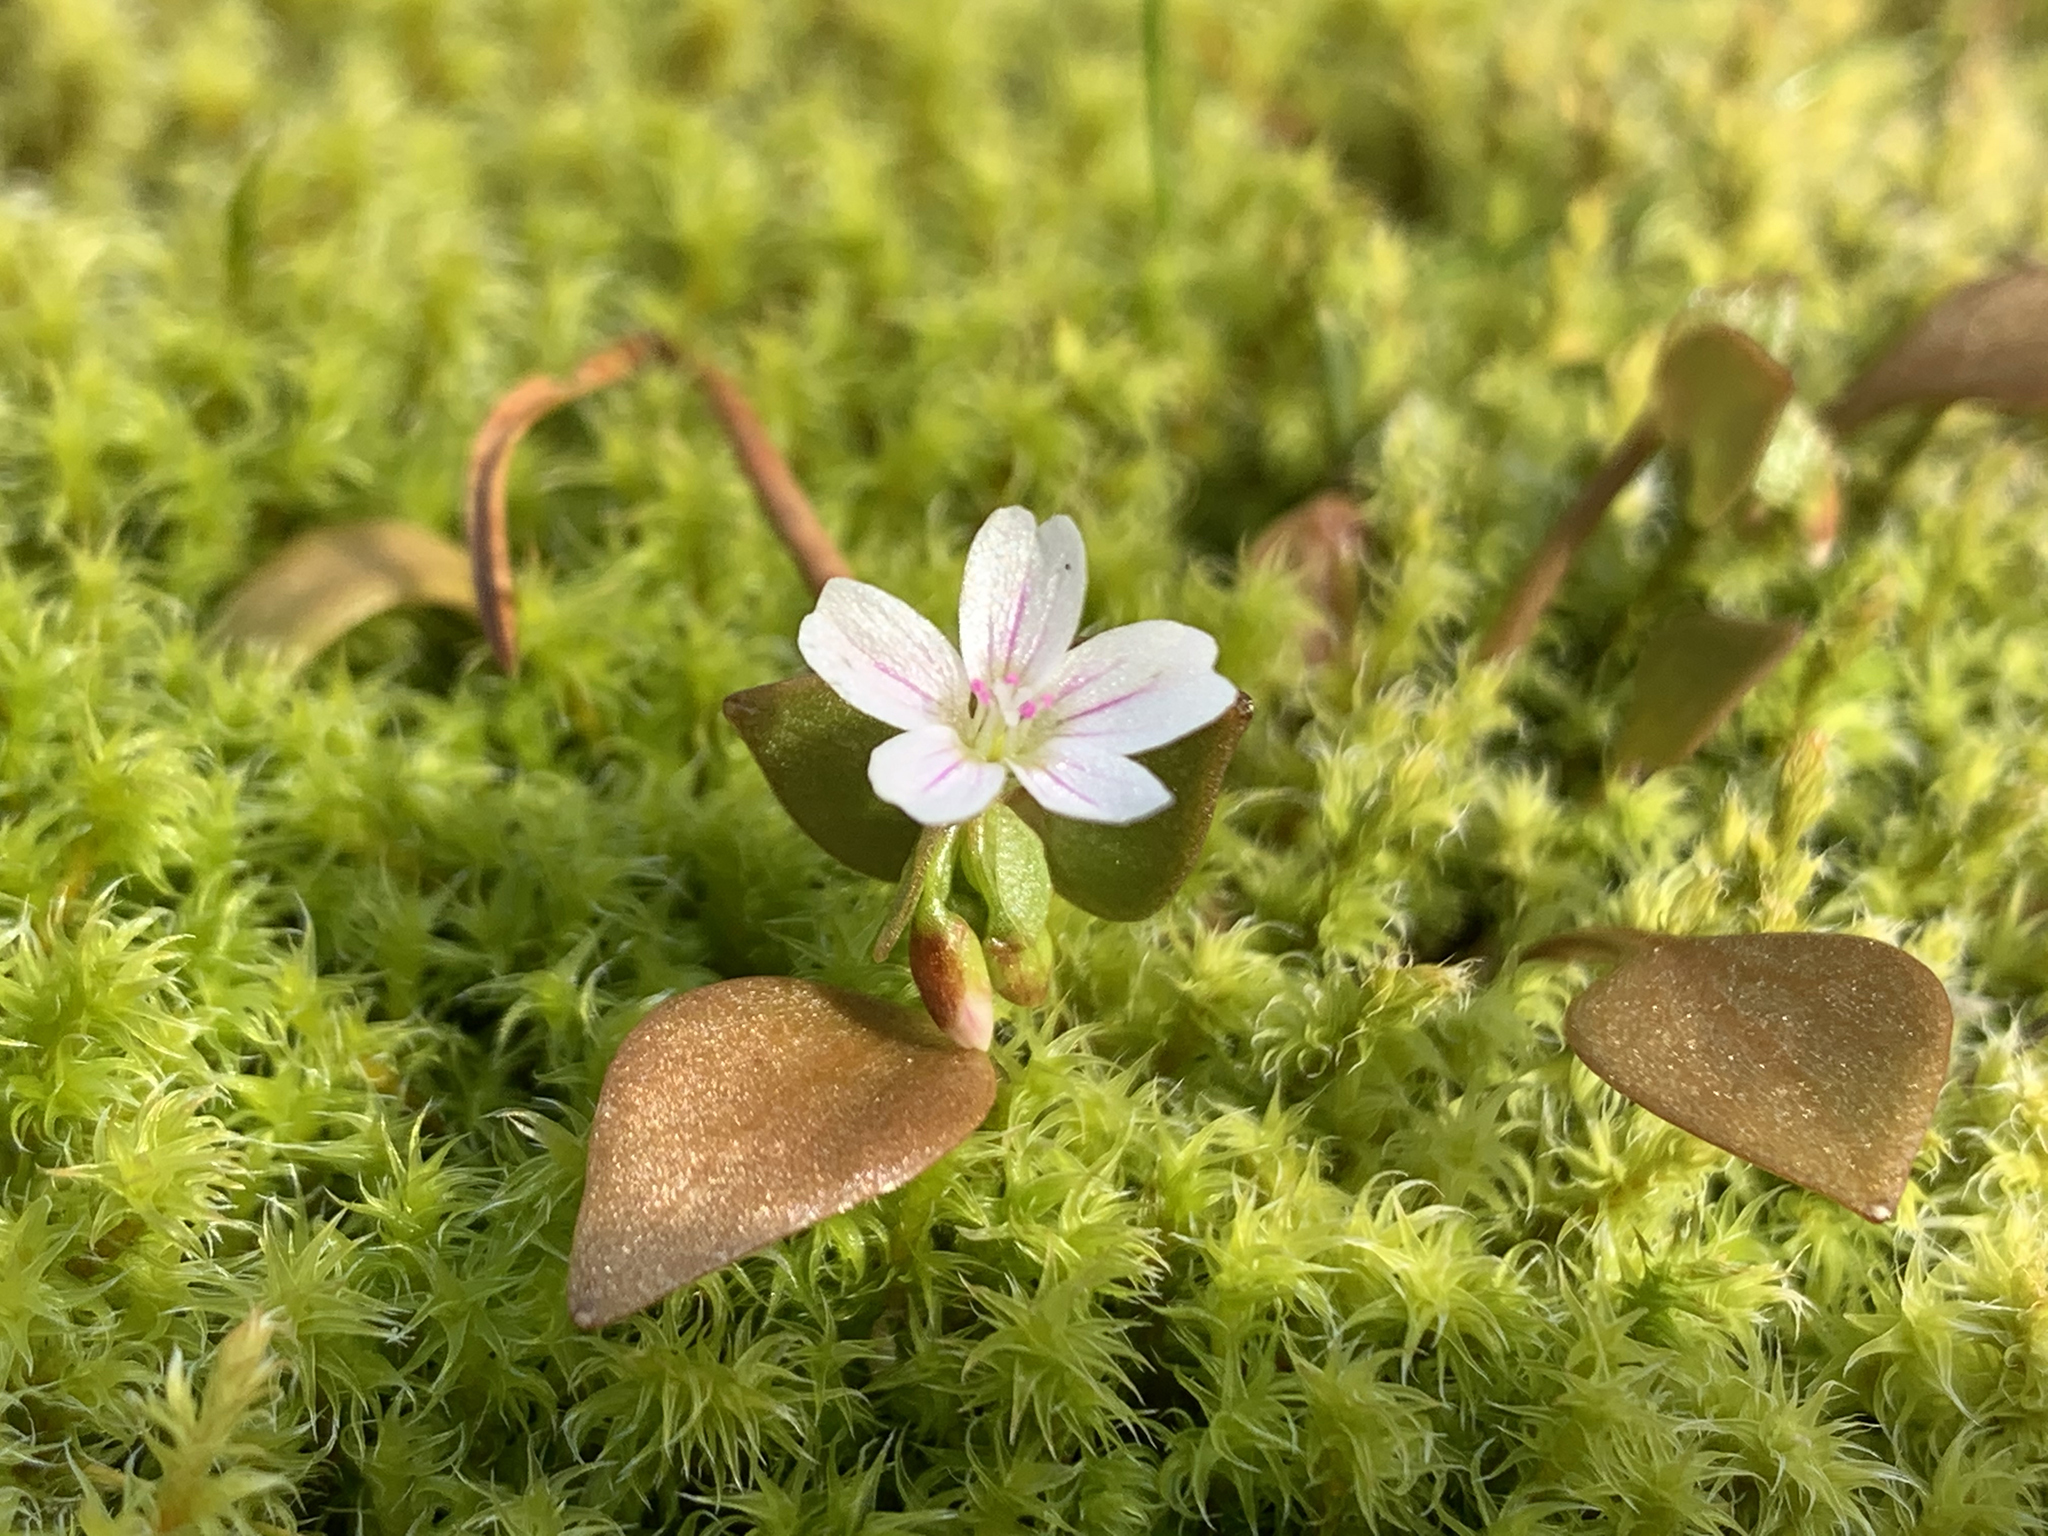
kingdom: Plantae
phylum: Tracheophyta
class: Magnoliopsida
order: Caryophyllales
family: Montiaceae
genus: Claytonia
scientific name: Claytonia rubra
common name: Erubescent miner's-lettuce
